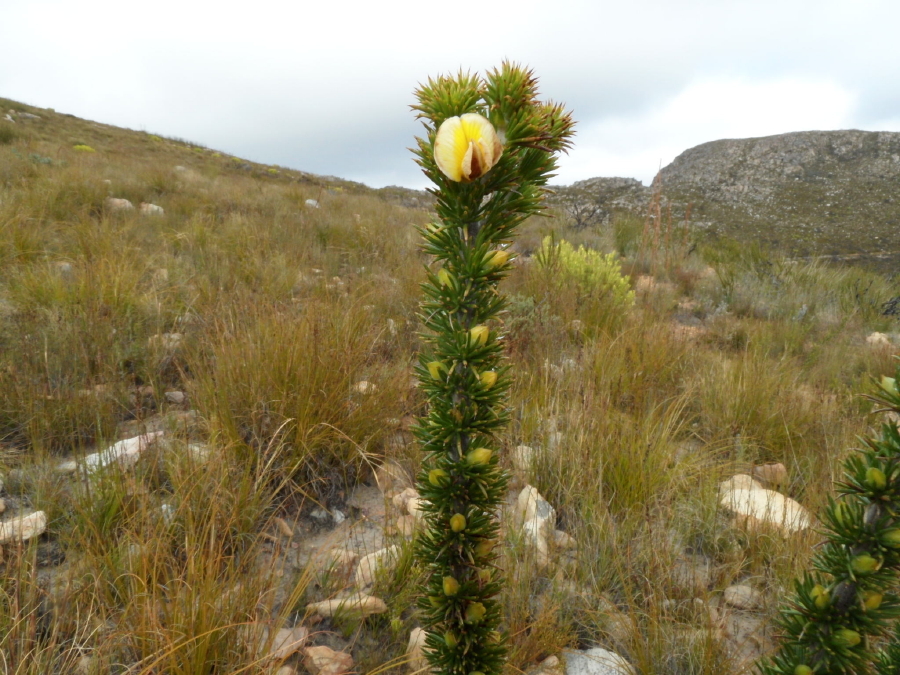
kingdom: Plantae
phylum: Tracheophyta
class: Magnoliopsida
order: Fabales
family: Fabaceae
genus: Aspalathus
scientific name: Aspalathus sceptrumaureum
